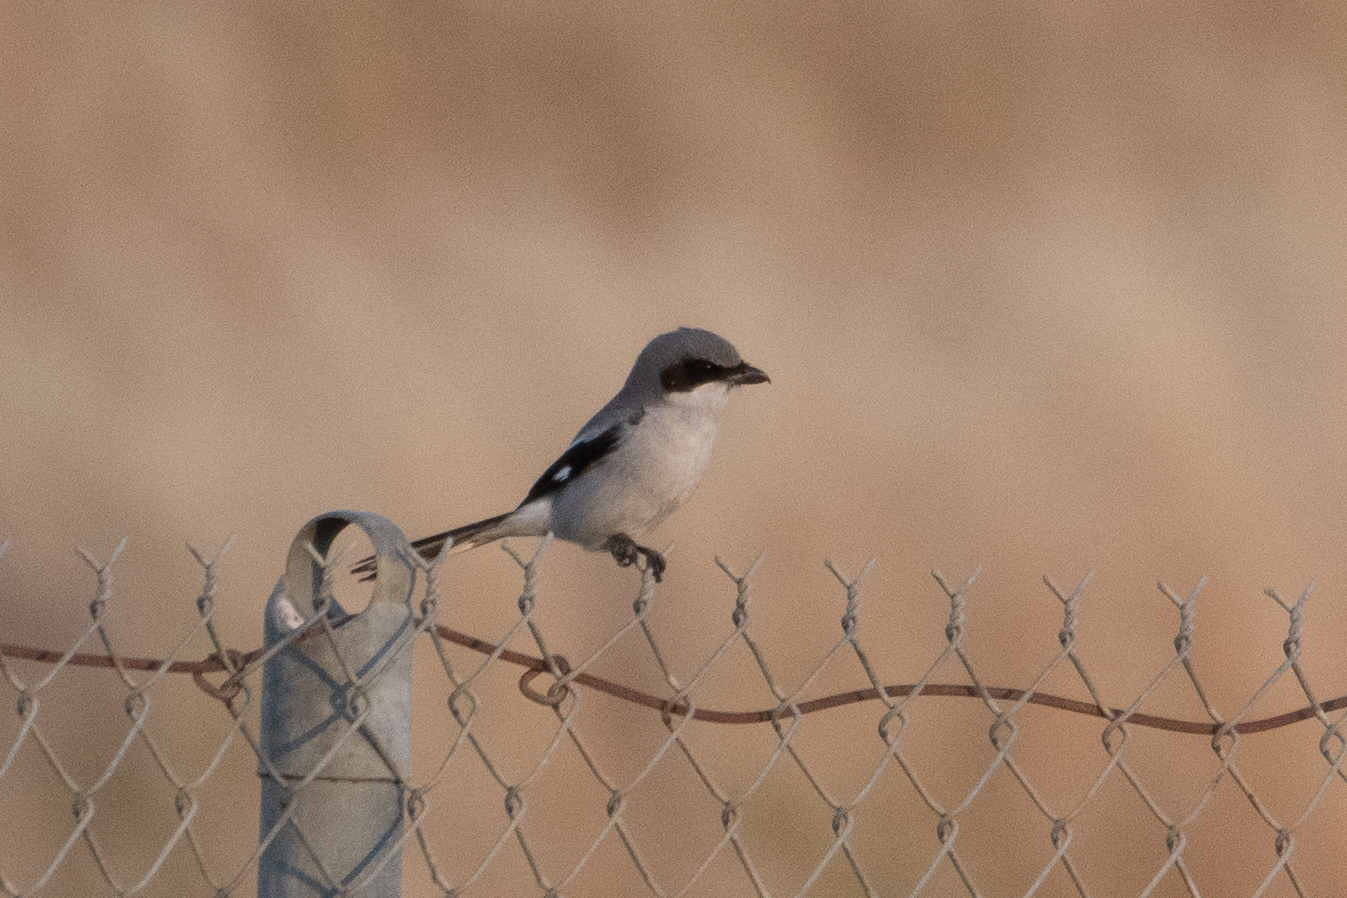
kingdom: Animalia
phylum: Chordata
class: Aves
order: Passeriformes
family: Laniidae
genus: Lanius
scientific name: Lanius ludovicianus
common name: Loggerhead shrike
